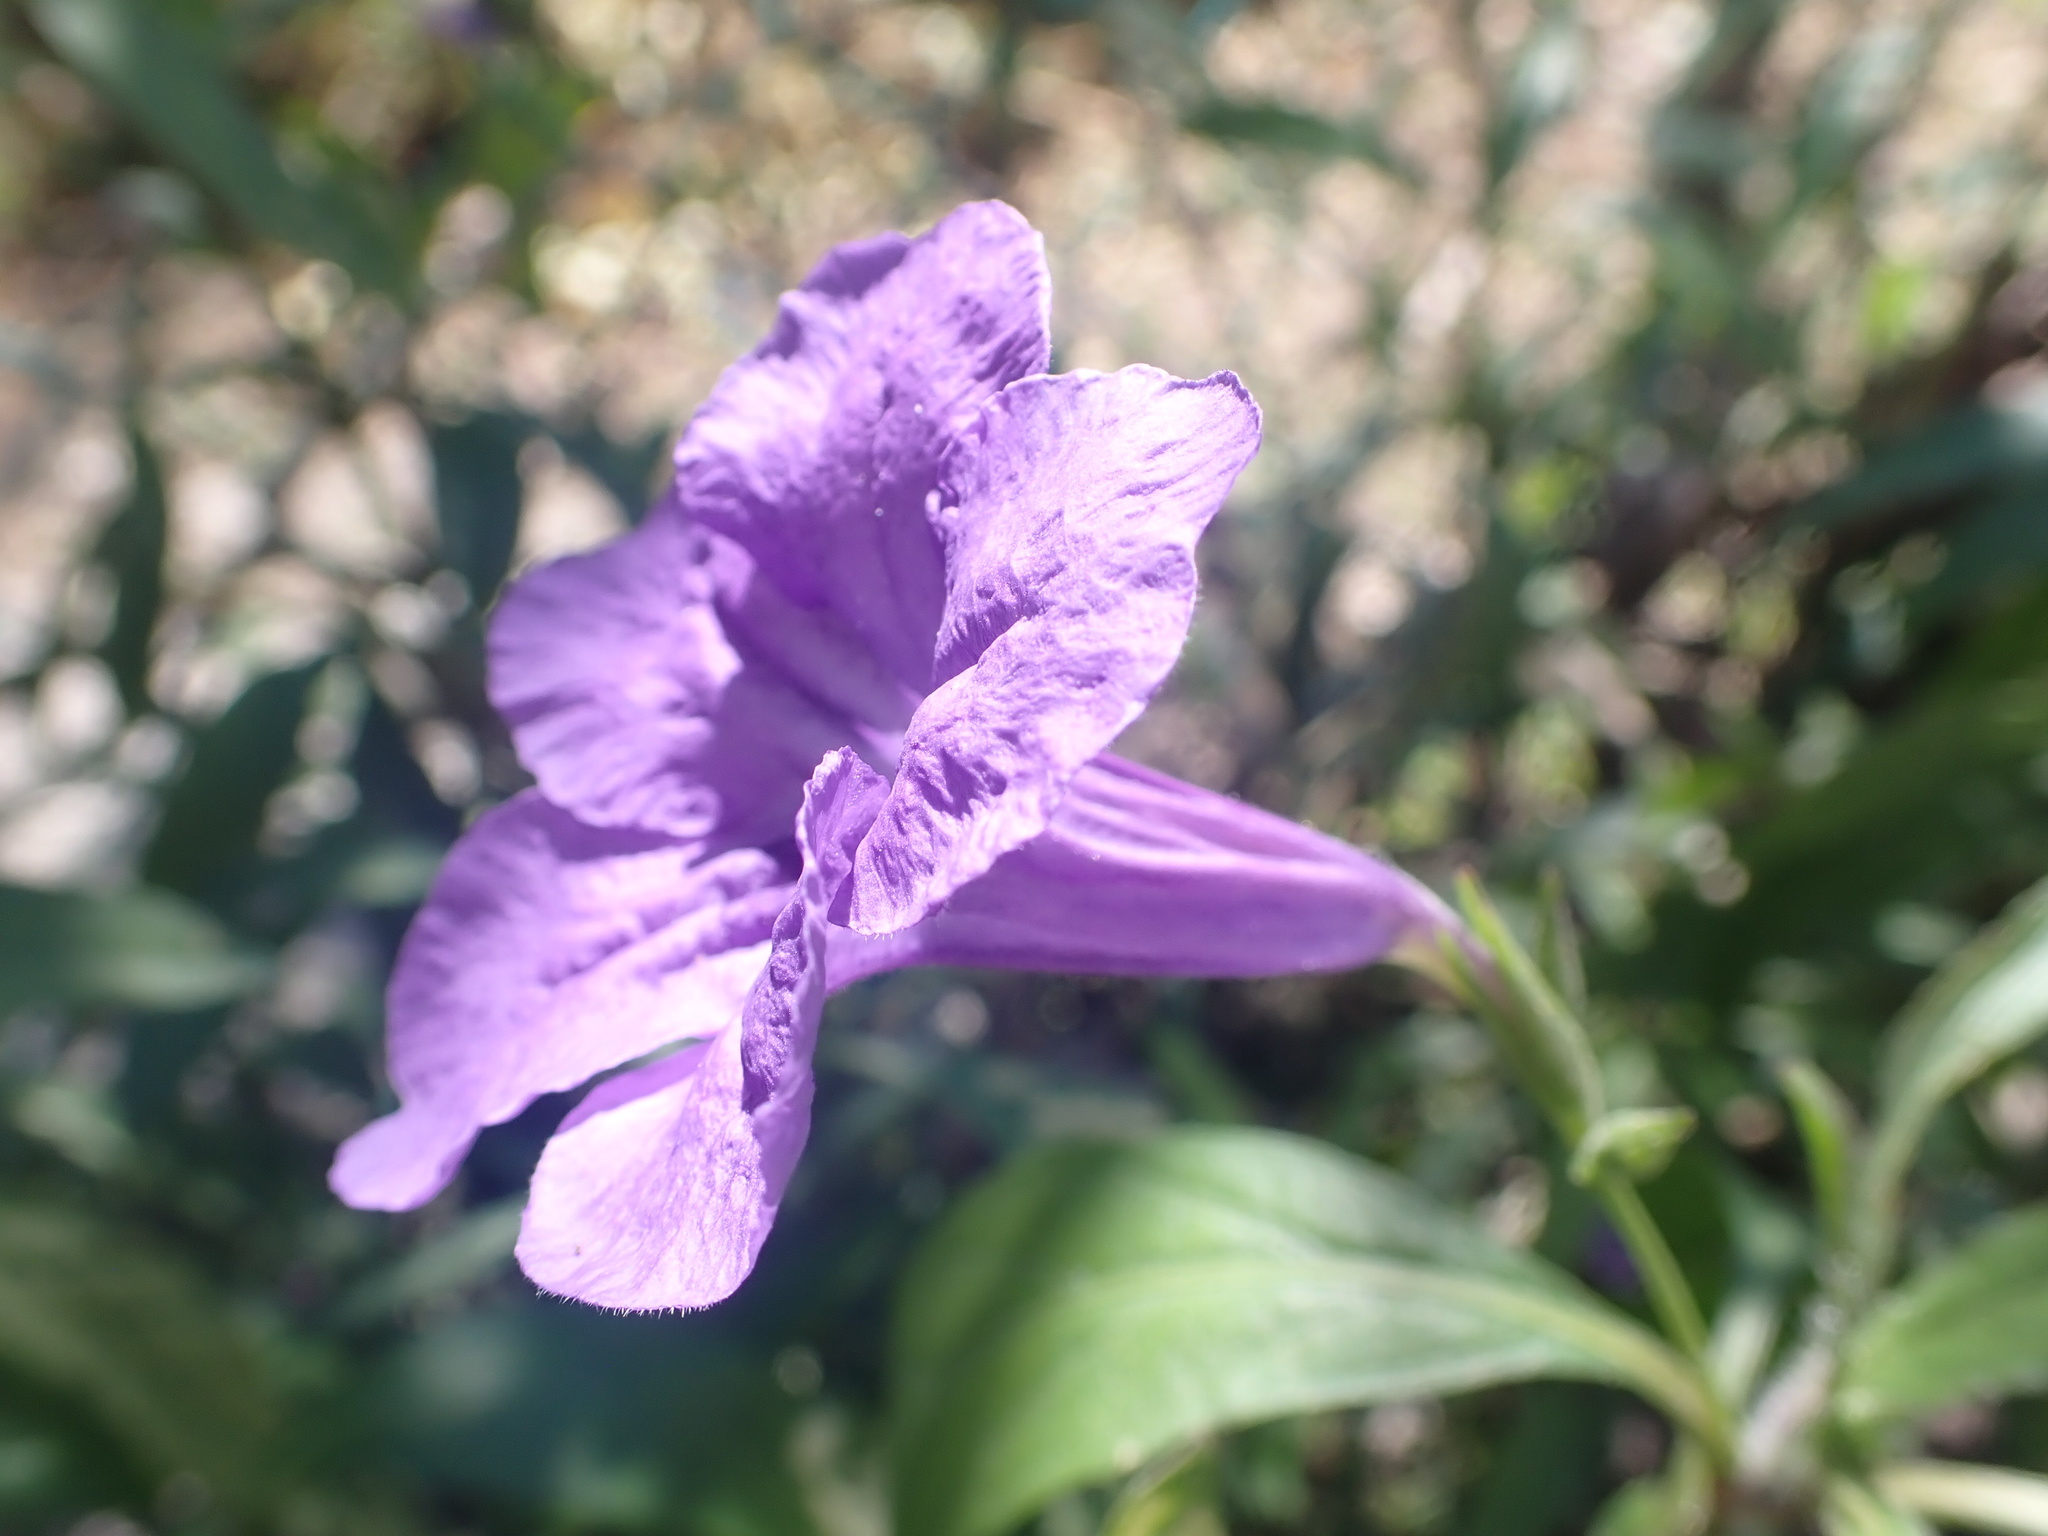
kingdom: Plantae
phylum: Tracheophyta
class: Magnoliopsida
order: Lamiales
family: Acanthaceae
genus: Ruellia
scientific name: Ruellia simplex
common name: Softseed wild petunia
